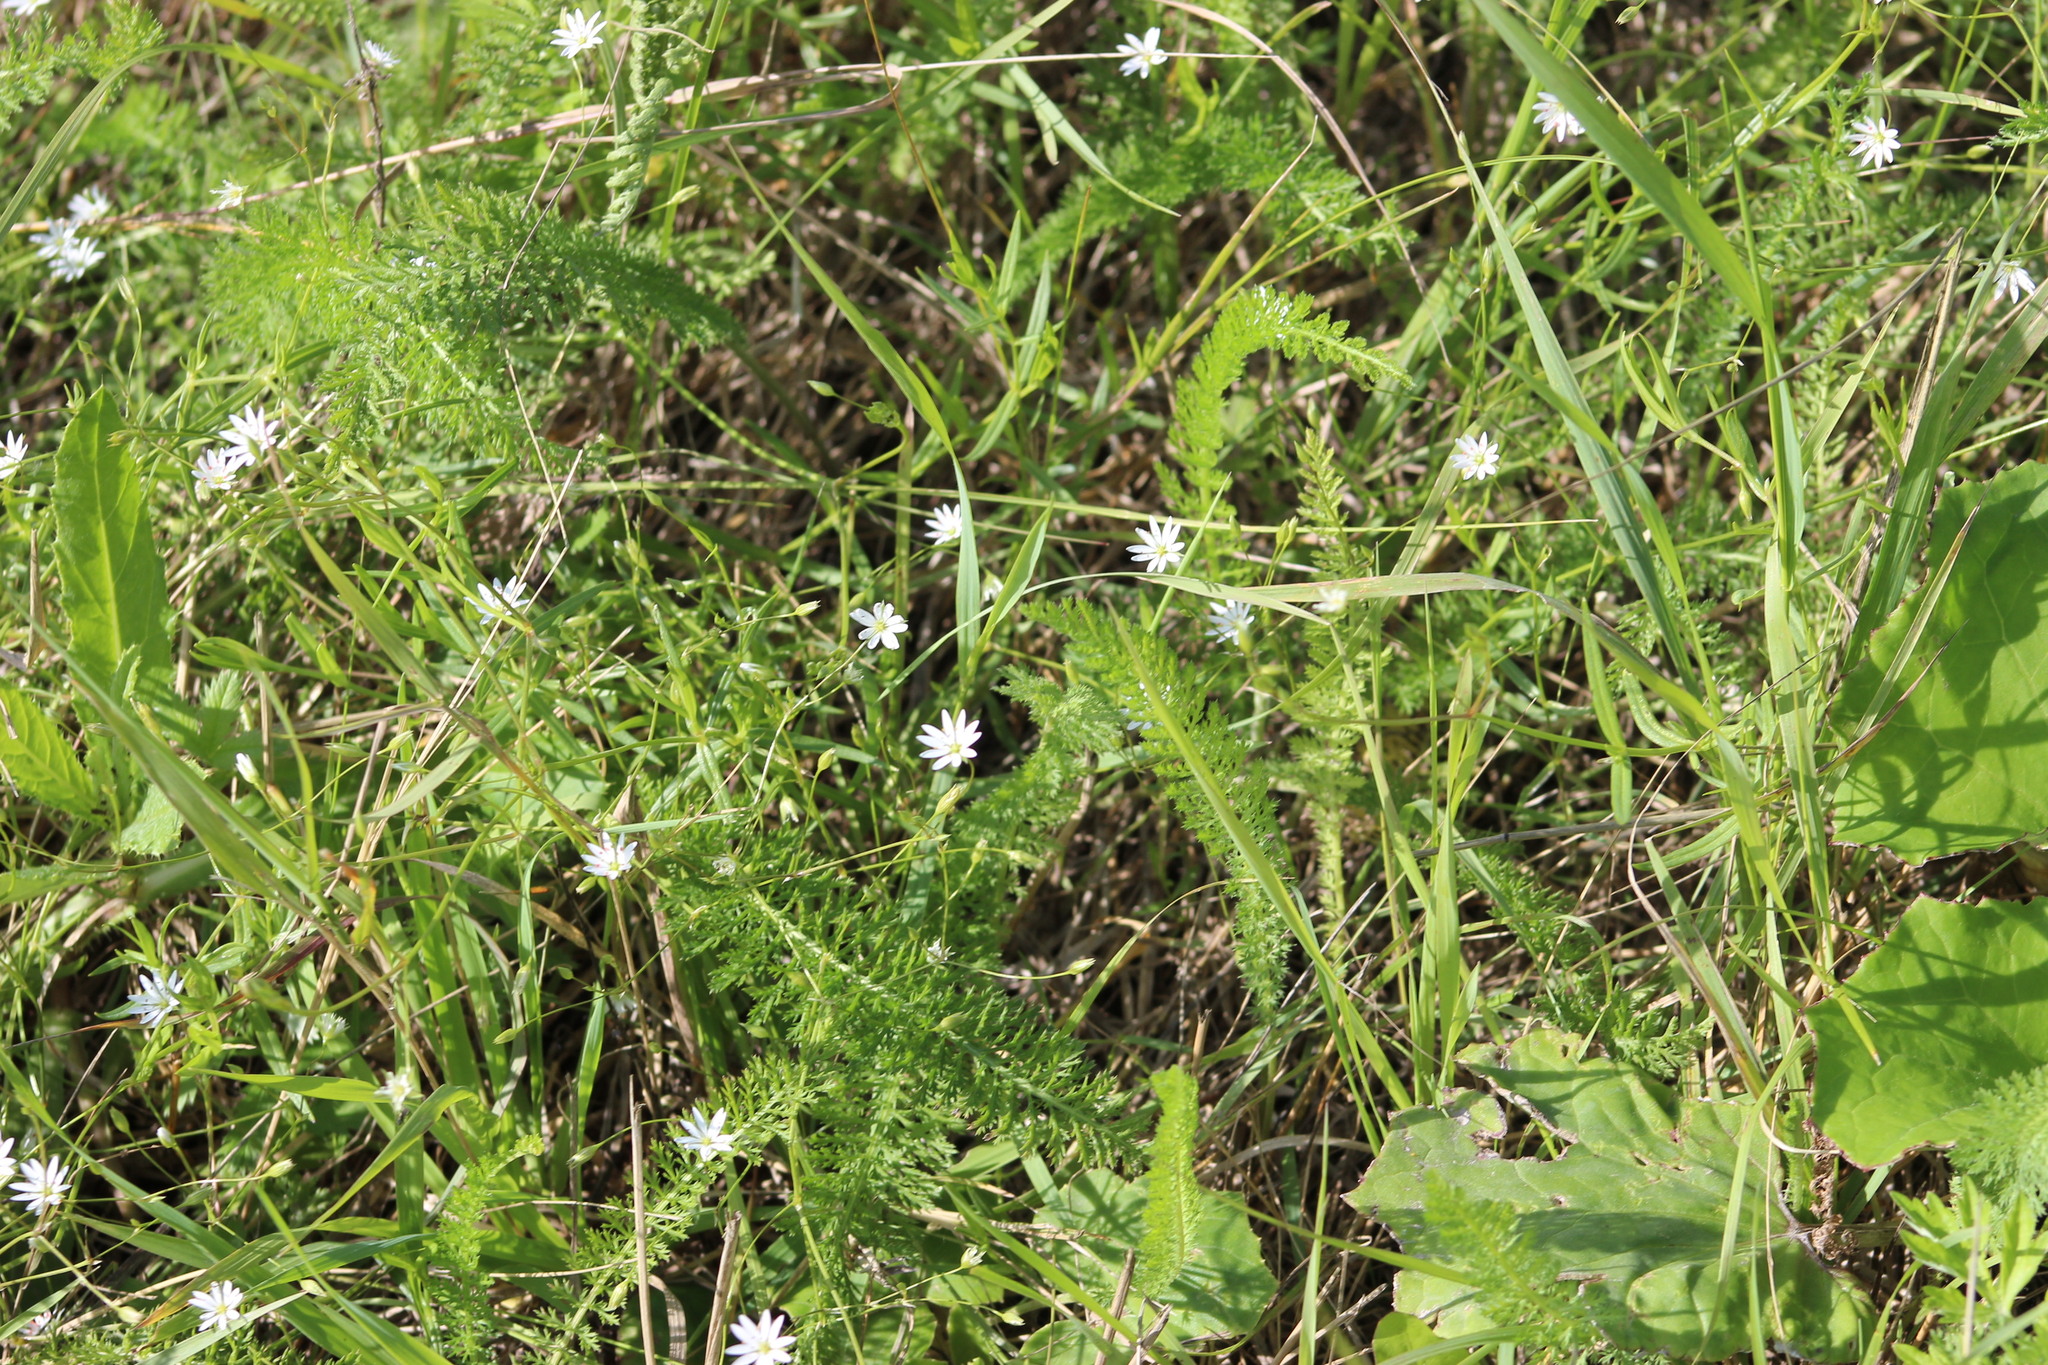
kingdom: Plantae
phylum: Tracheophyta
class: Magnoliopsida
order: Caryophyllales
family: Caryophyllaceae
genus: Stellaria
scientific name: Stellaria graminea
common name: Grass-like starwort
